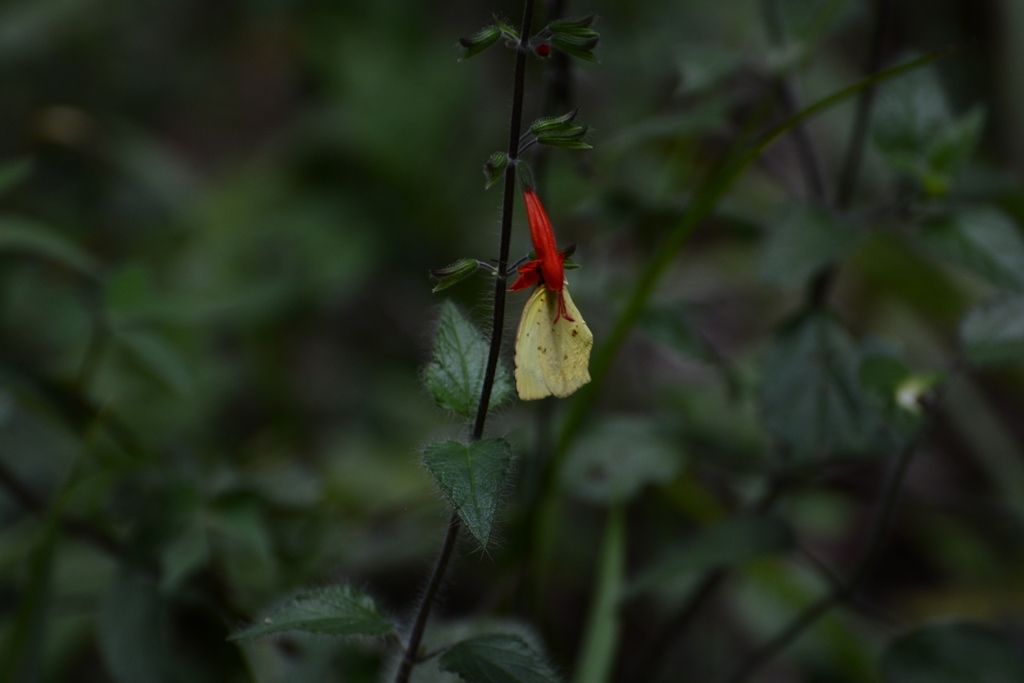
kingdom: Plantae
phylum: Tracheophyta
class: Magnoliopsida
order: Lamiales
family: Lamiaceae
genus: Salvia
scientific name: Salvia coccinea
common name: Blood sage
